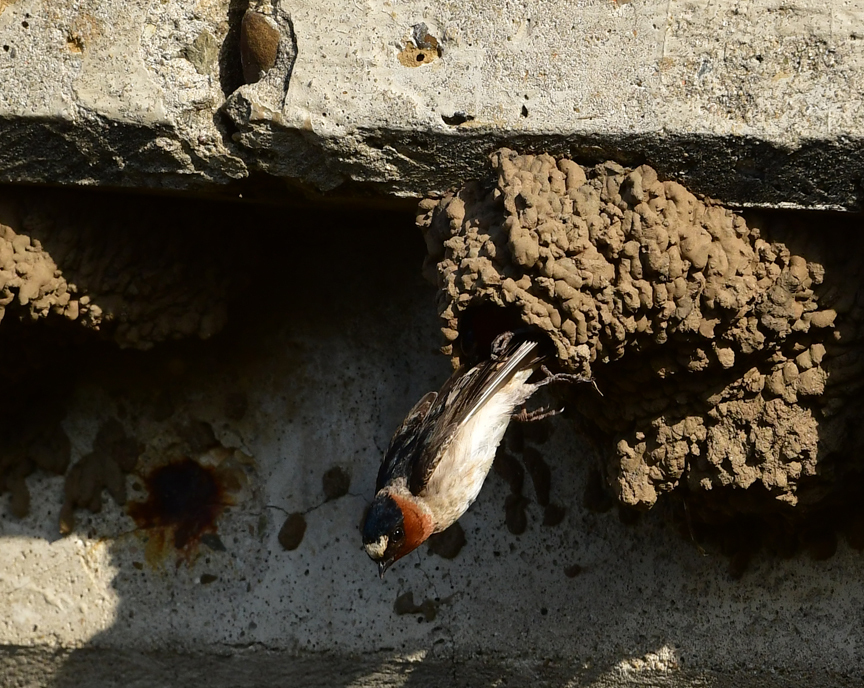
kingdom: Animalia
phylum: Chordata
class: Aves
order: Passeriformes
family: Hirundinidae
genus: Petrochelidon
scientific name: Petrochelidon pyrrhonota
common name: American cliff swallow
